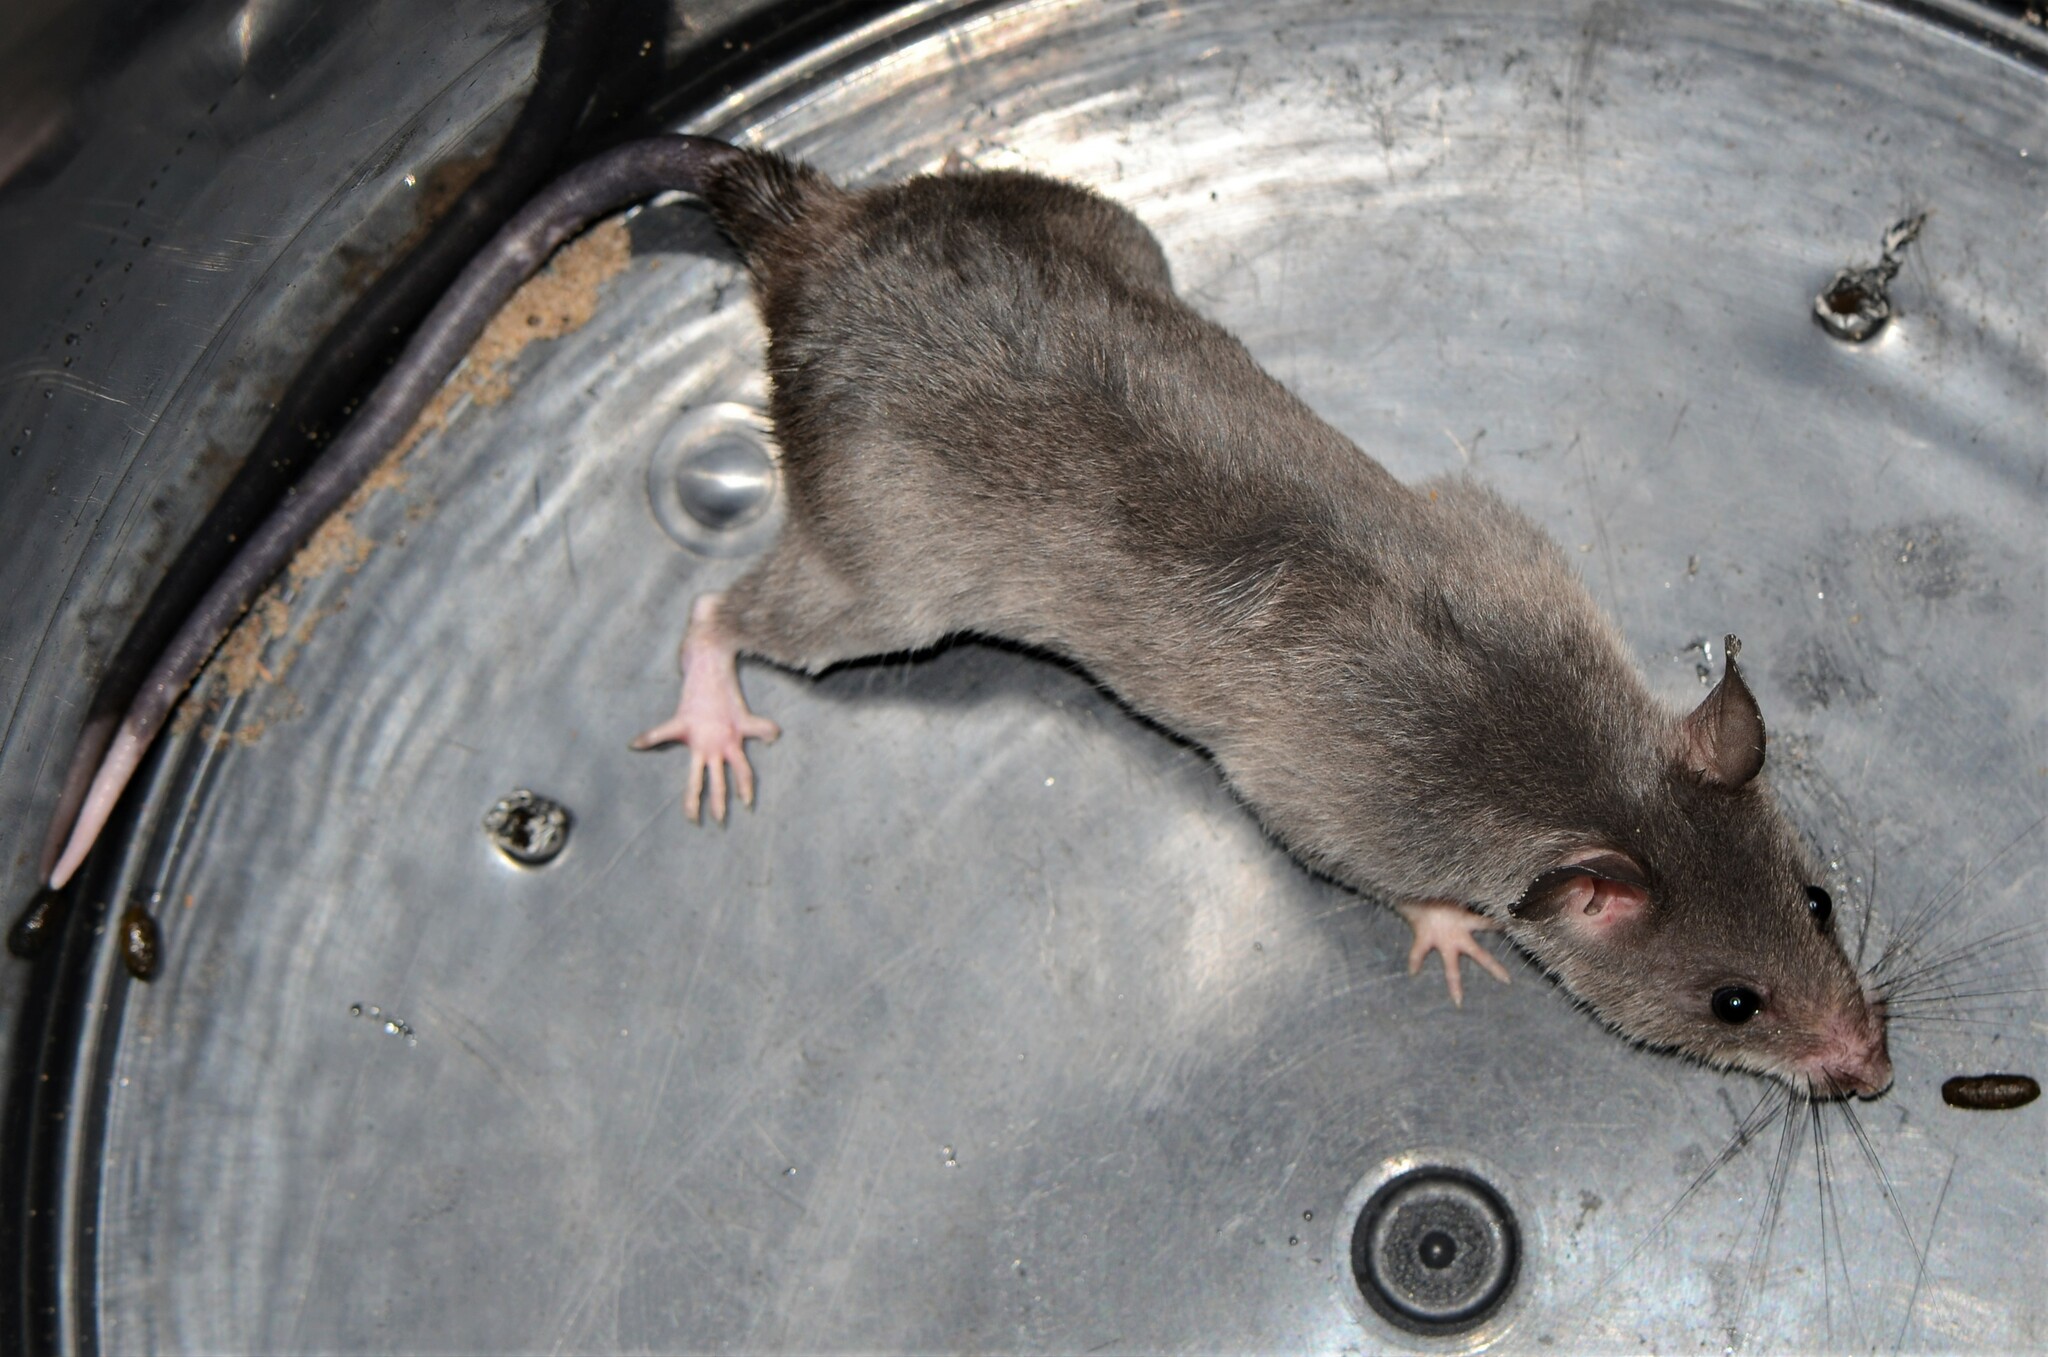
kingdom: Animalia
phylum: Chordata
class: Mammalia
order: Rodentia
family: Nesomyidae
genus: Beamys
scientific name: Beamys hindei
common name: Lesser hamster-rat, long-tailed pouched rat
